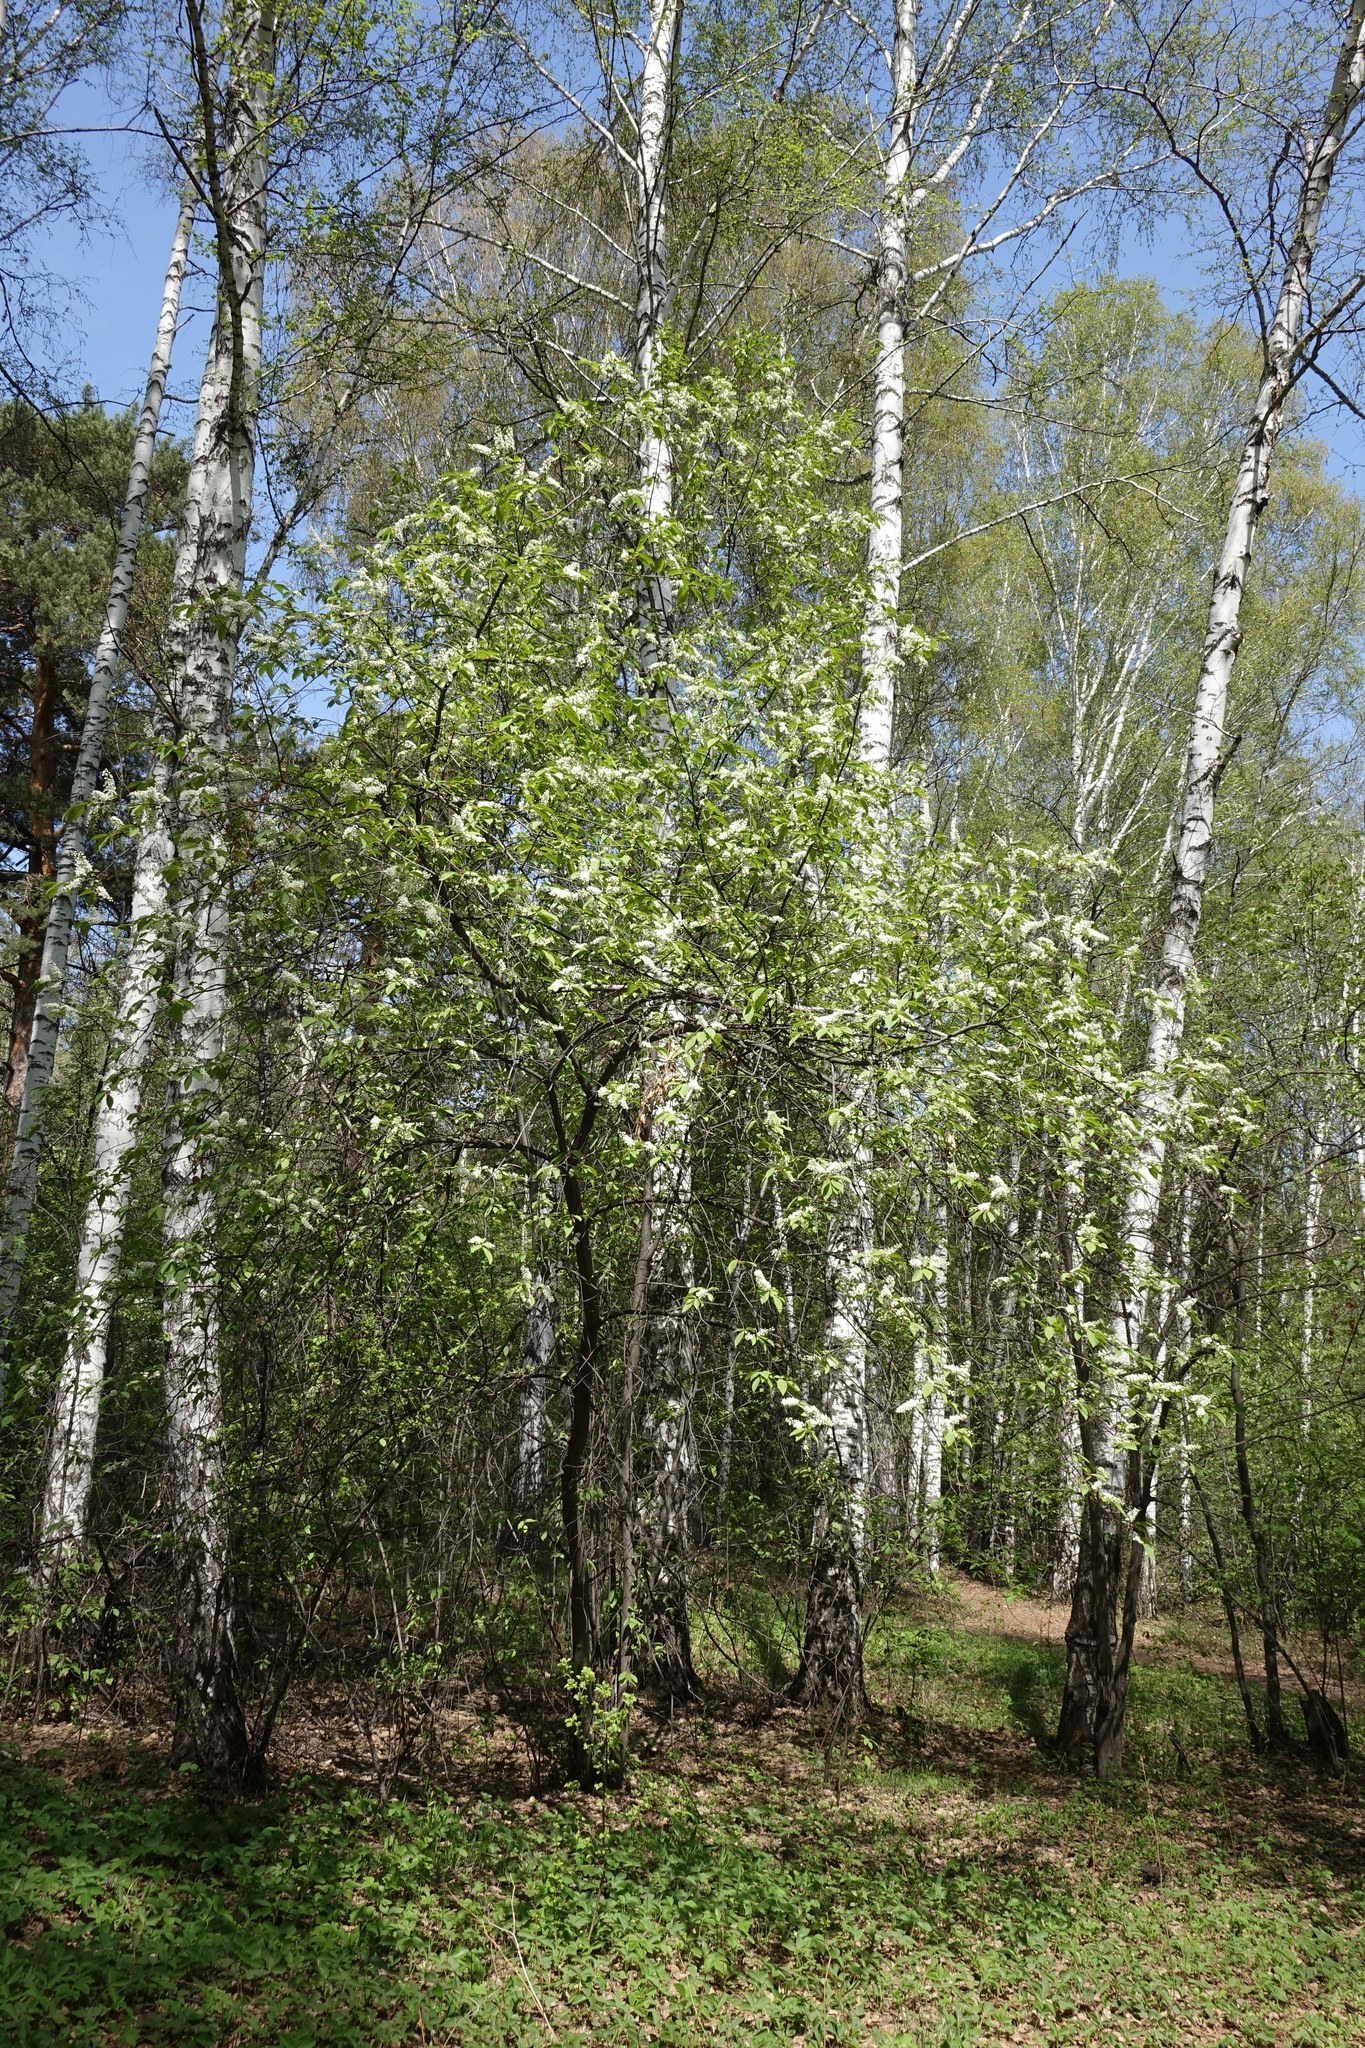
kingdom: Plantae
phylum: Tracheophyta
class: Magnoliopsida
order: Rosales
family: Rosaceae
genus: Prunus
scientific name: Prunus padus
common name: Bird cherry
